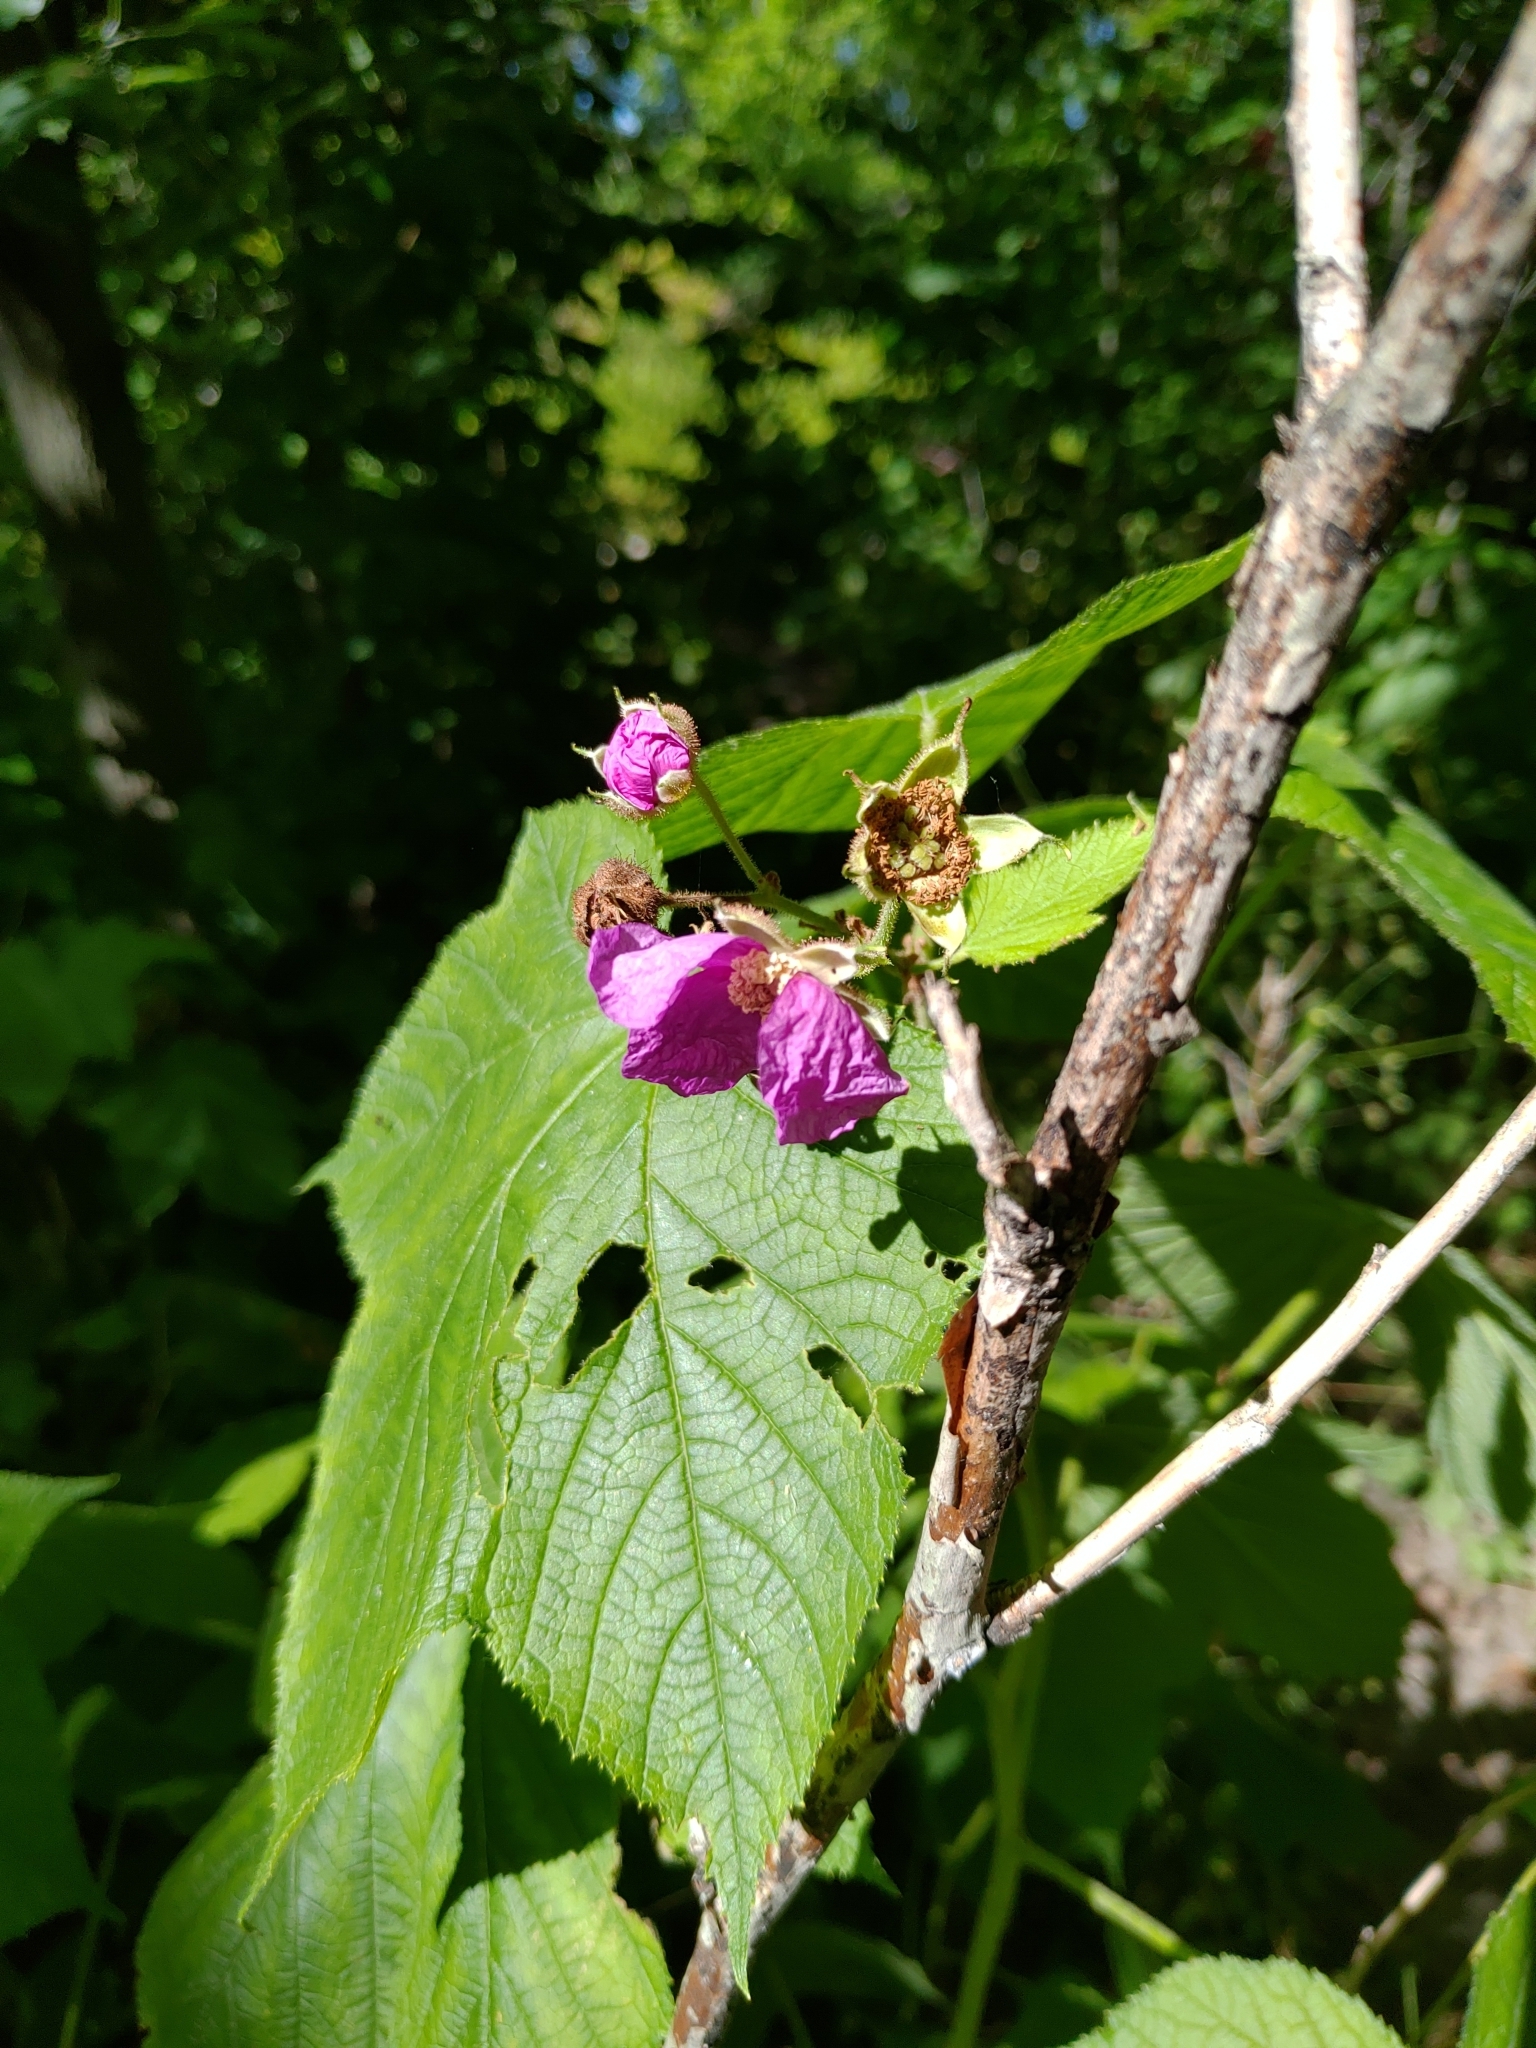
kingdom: Plantae
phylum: Tracheophyta
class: Magnoliopsida
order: Rosales
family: Rosaceae
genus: Rubus
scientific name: Rubus odoratus
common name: Purple-flowered raspberry
